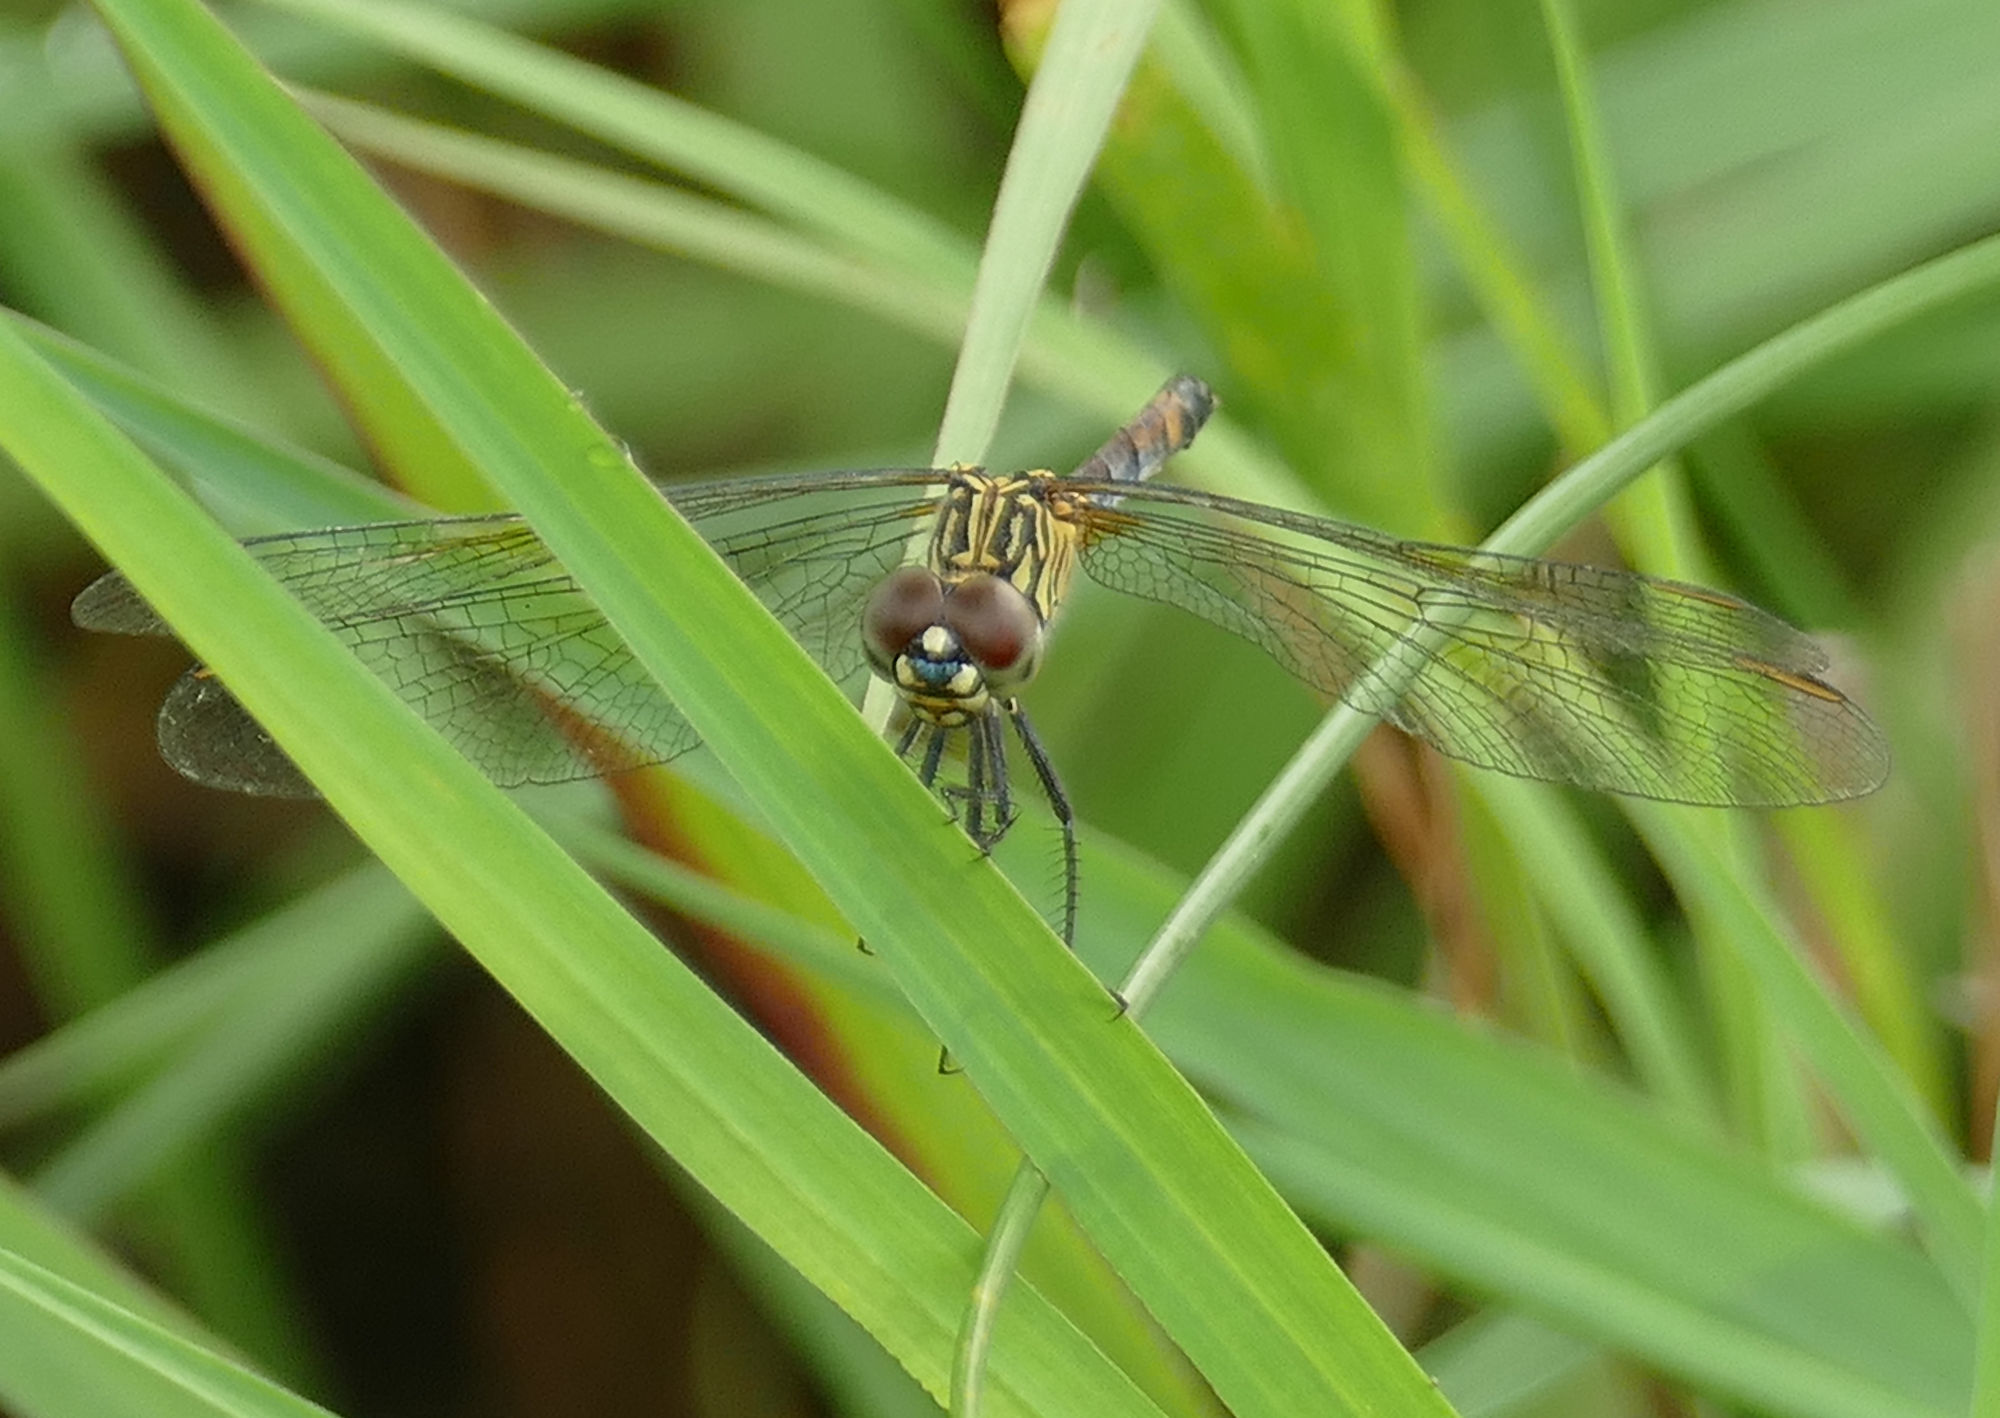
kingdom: Animalia
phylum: Arthropoda
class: Insecta
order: Odonata
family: Libellulidae
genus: Erythrodiplax
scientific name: Erythrodiplax berenice
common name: Seaside dragonlet
